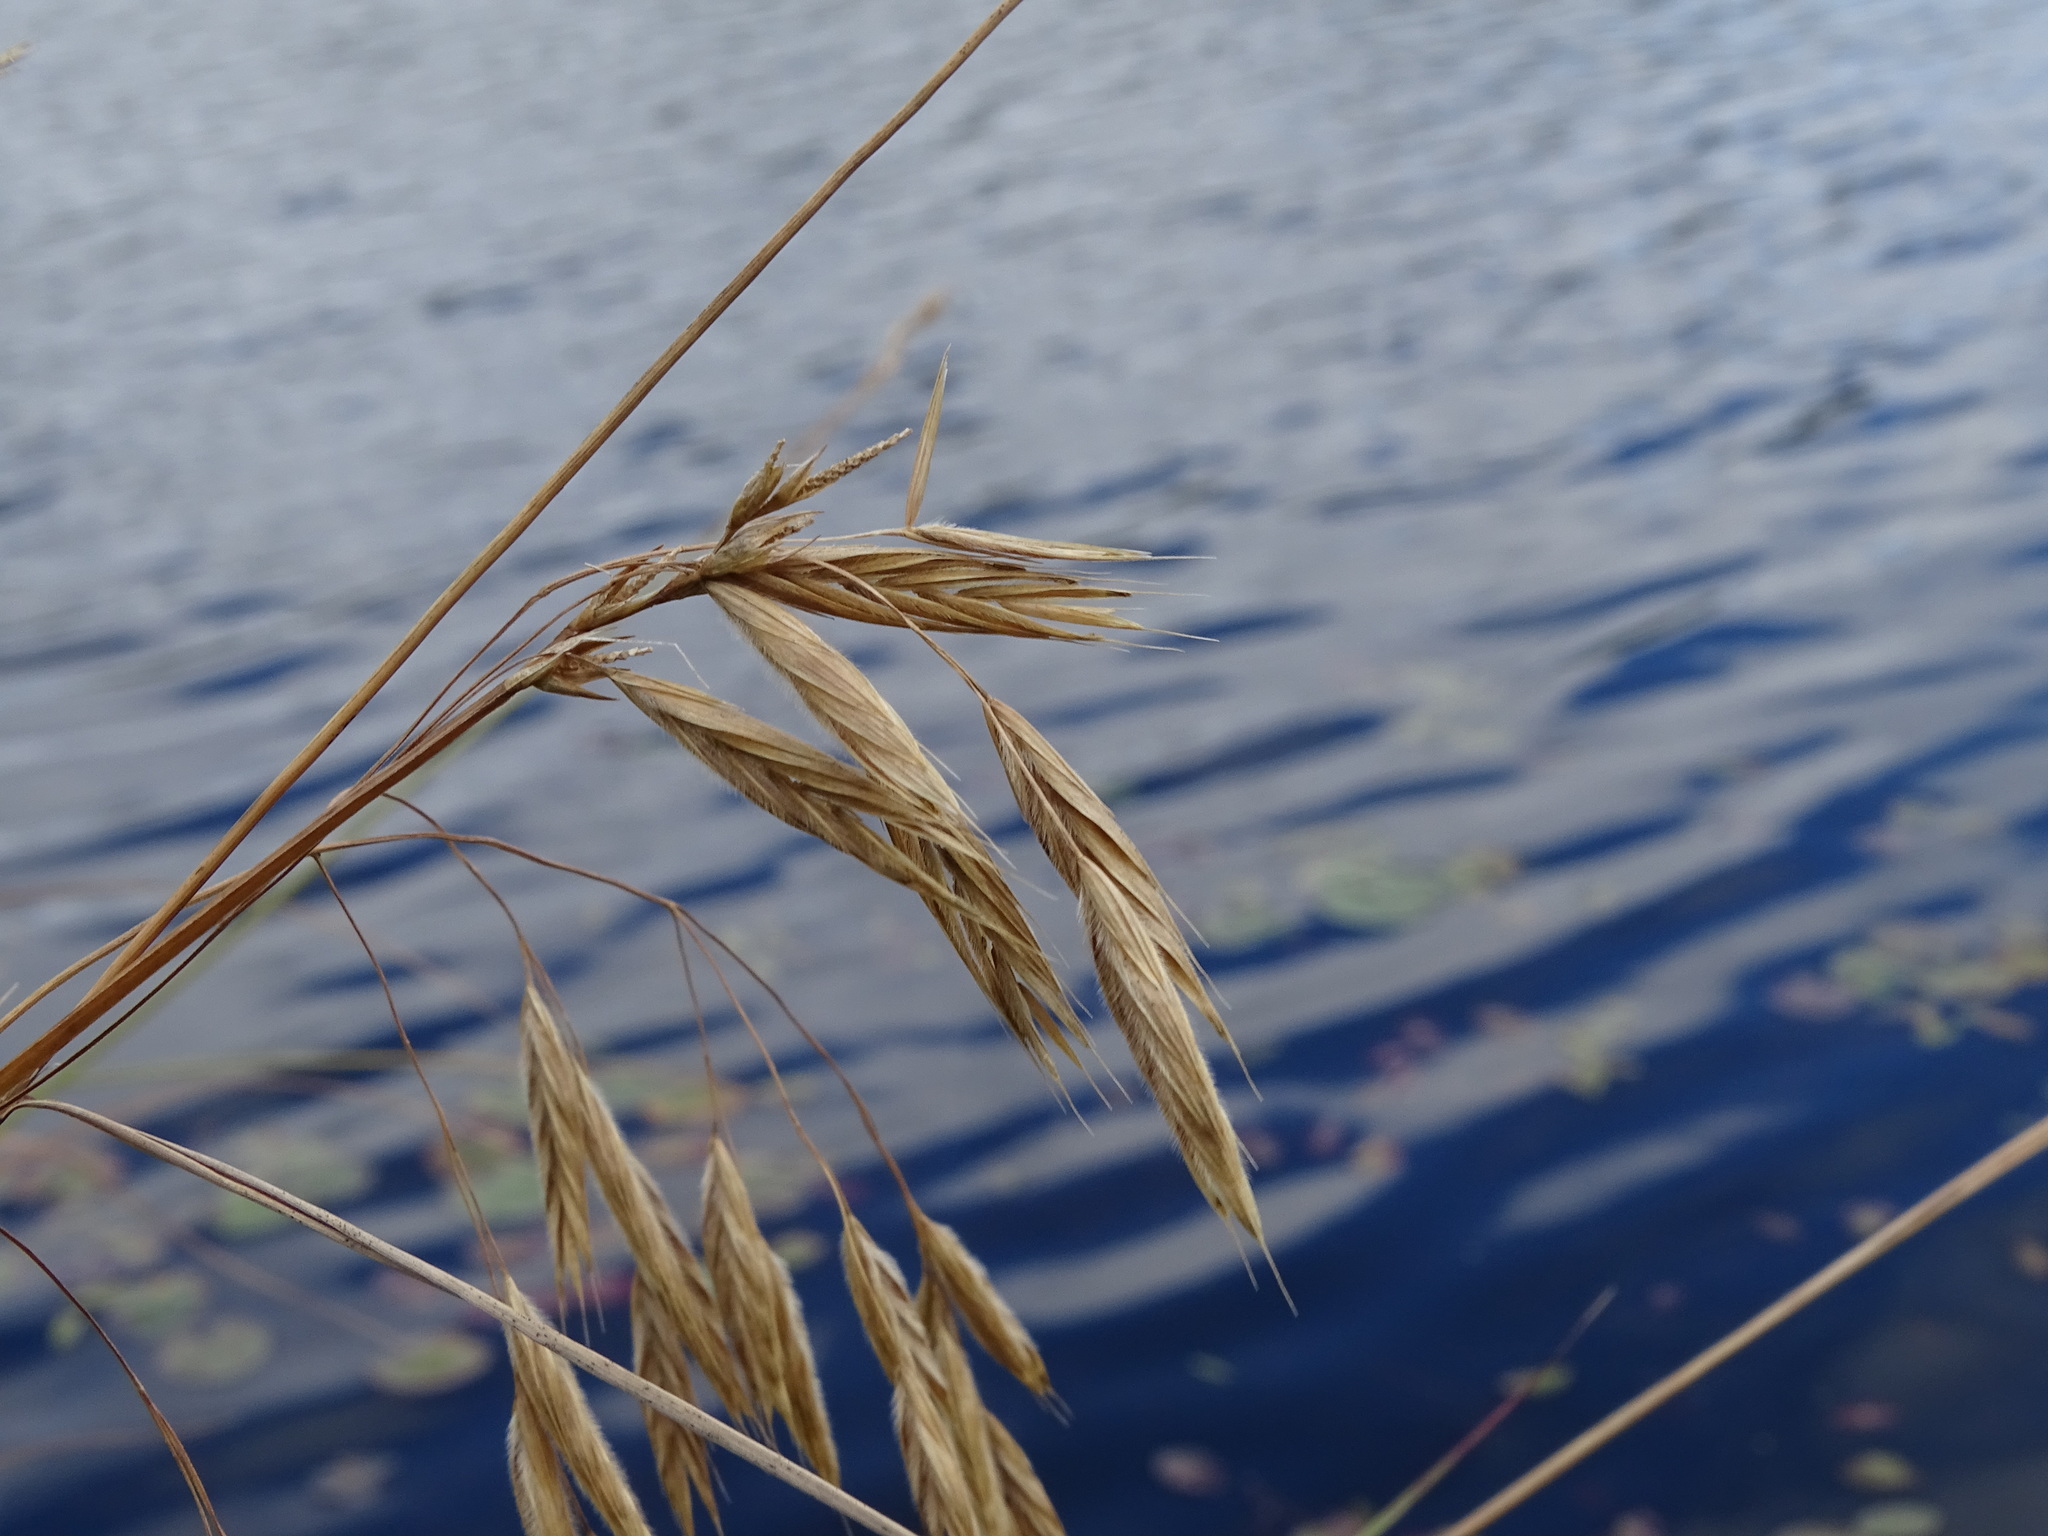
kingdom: Plantae
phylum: Tracheophyta
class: Liliopsida
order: Poales
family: Poaceae
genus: Bromus
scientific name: Bromus ciliatus
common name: Fringe brome
